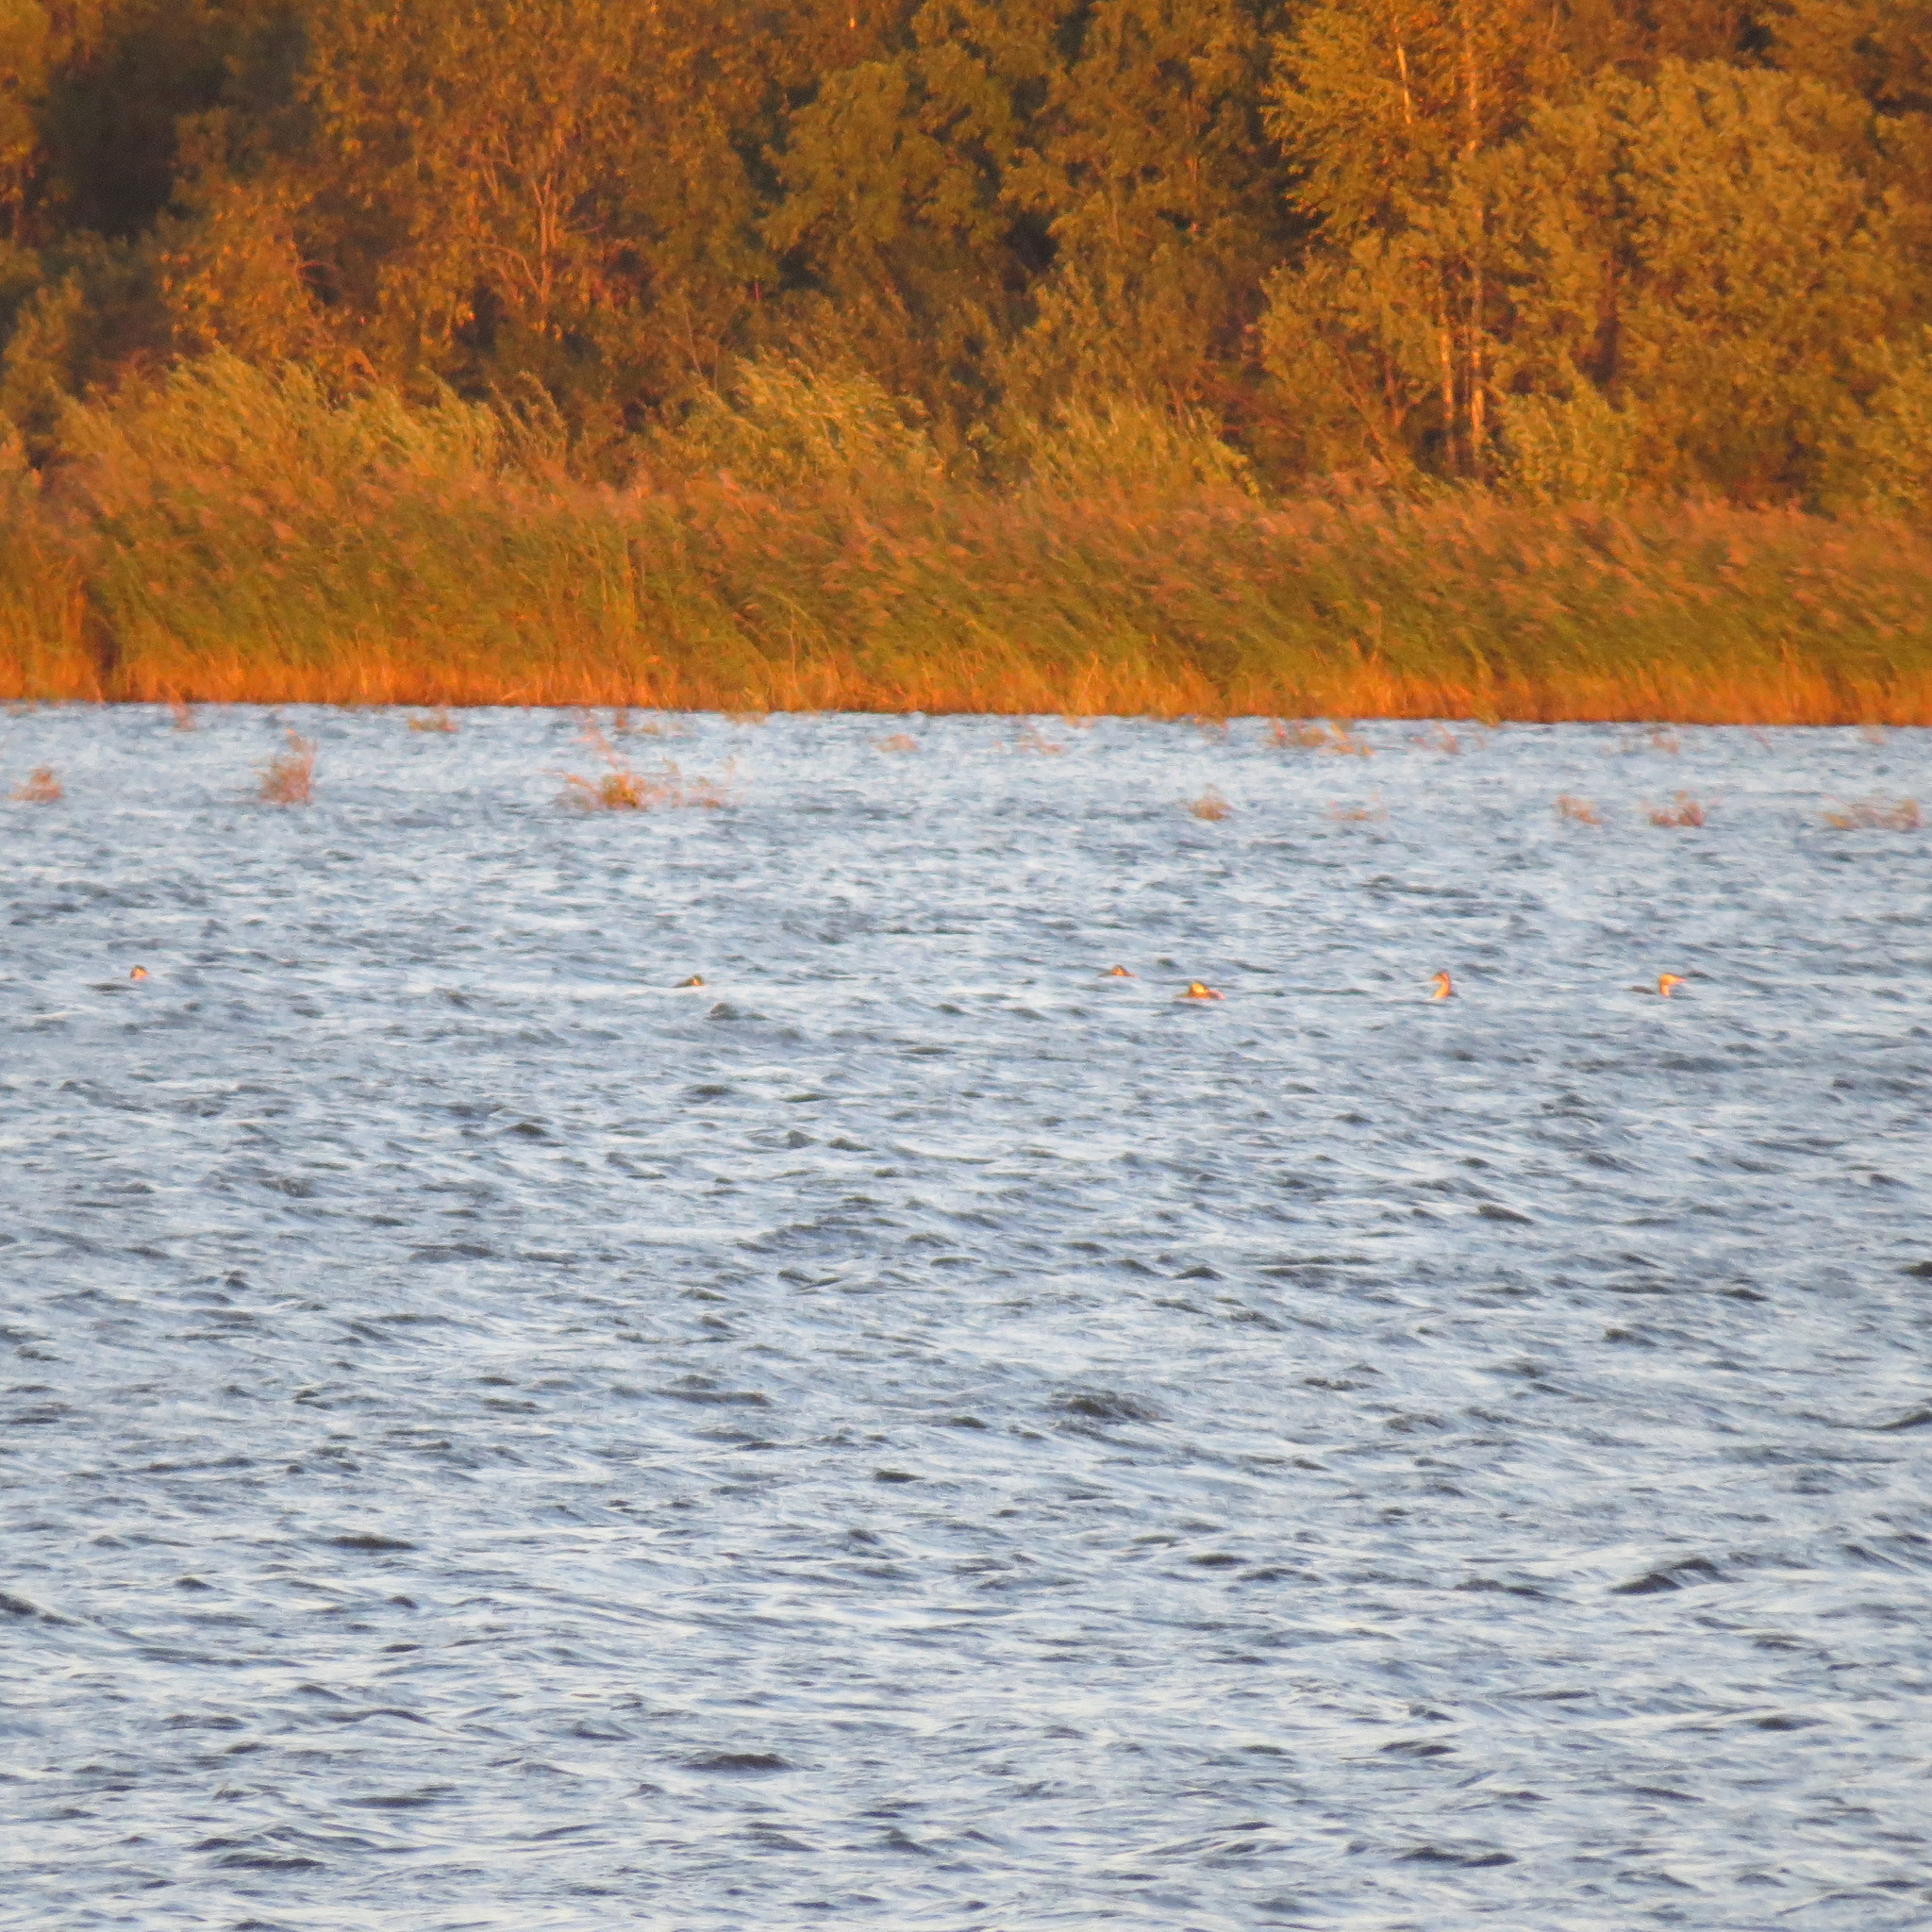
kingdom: Animalia
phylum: Chordata
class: Aves
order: Podicipediformes
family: Podicipedidae
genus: Podiceps
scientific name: Podiceps cristatus
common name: Great crested grebe
